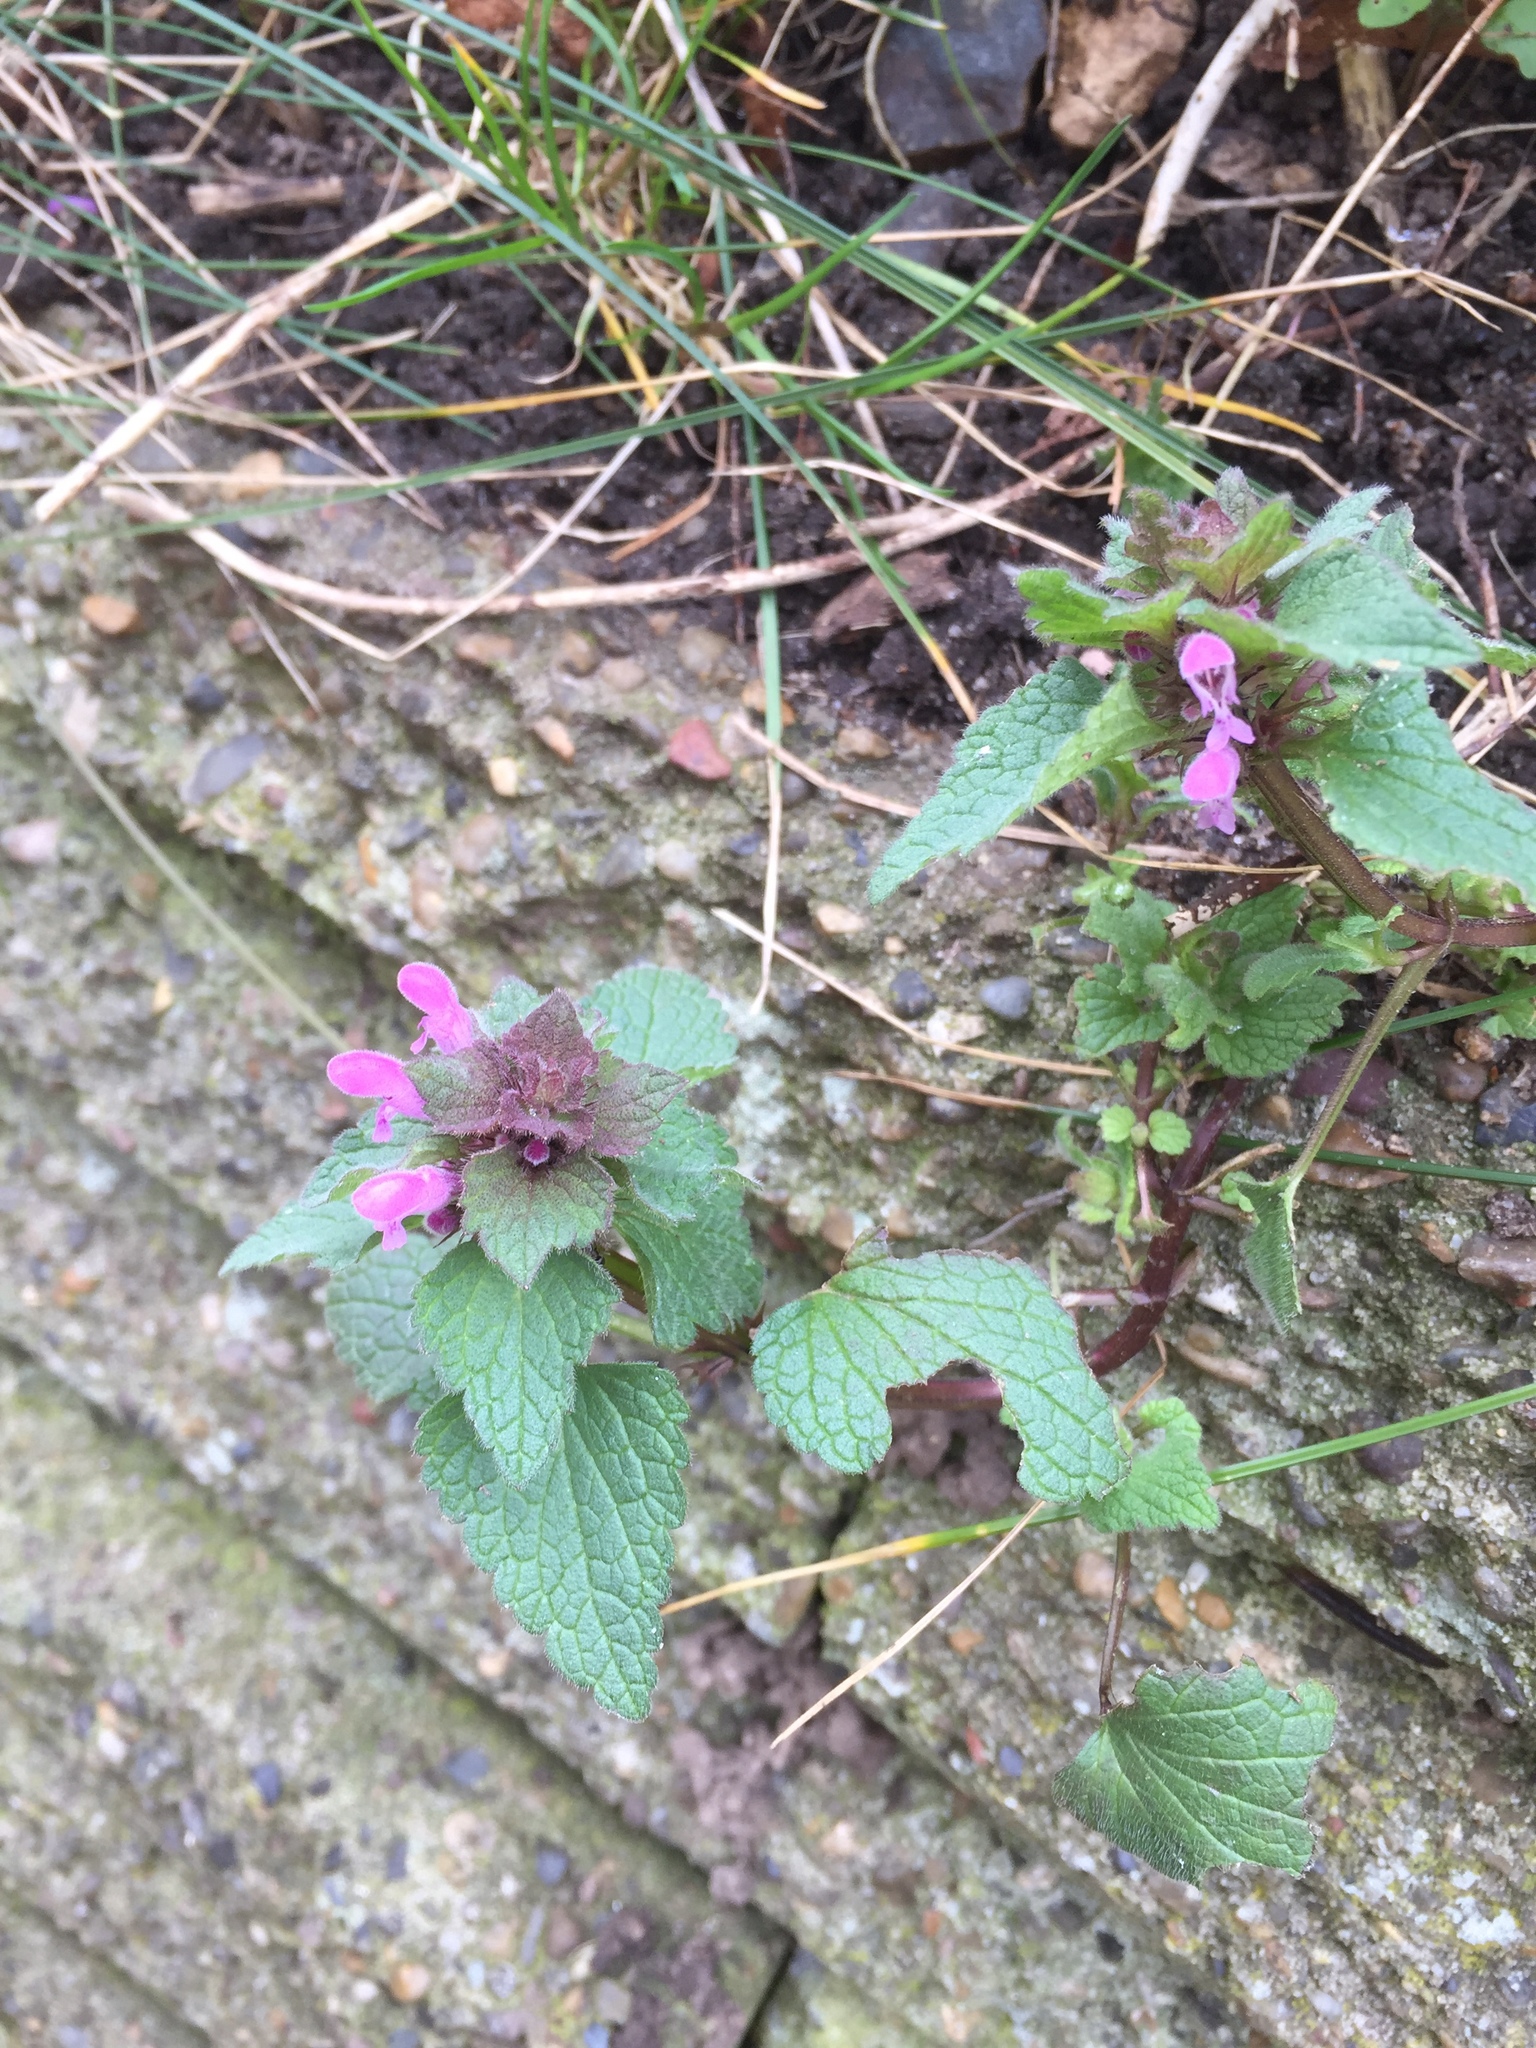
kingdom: Plantae
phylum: Tracheophyta
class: Magnoliopsida
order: Lamiales
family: Lamiaceae
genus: Lamium
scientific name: Lamium purpureum
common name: Red dead-nettle
